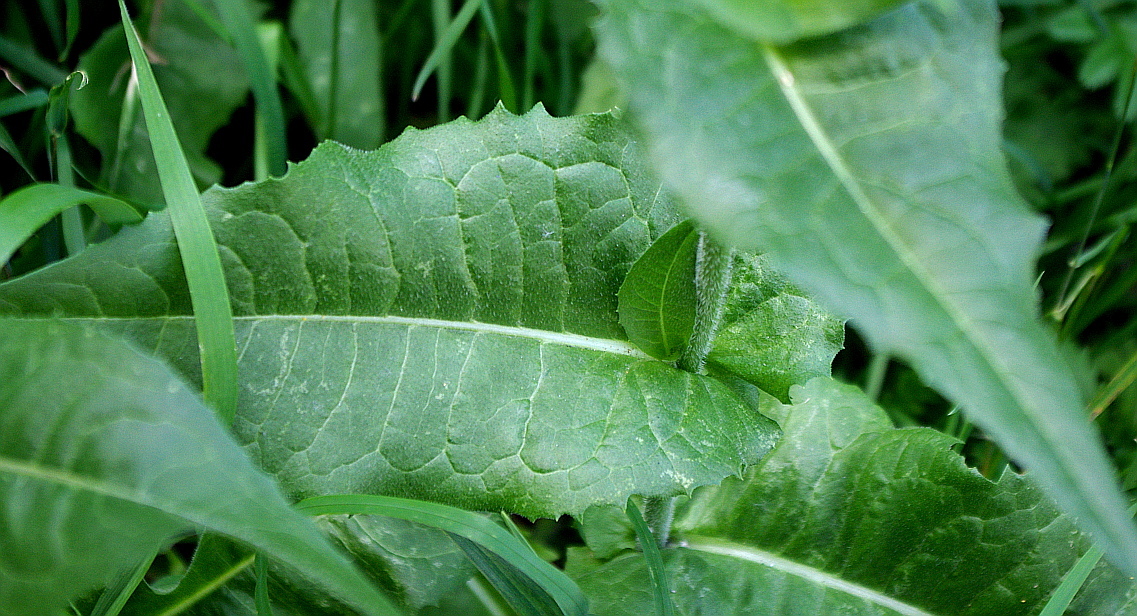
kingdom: Plantae
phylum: Tracheophyta
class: Magnoliopsida
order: Asterales
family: Asteraceae
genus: Cichorium
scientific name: Cichorium intybus
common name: Chicory
